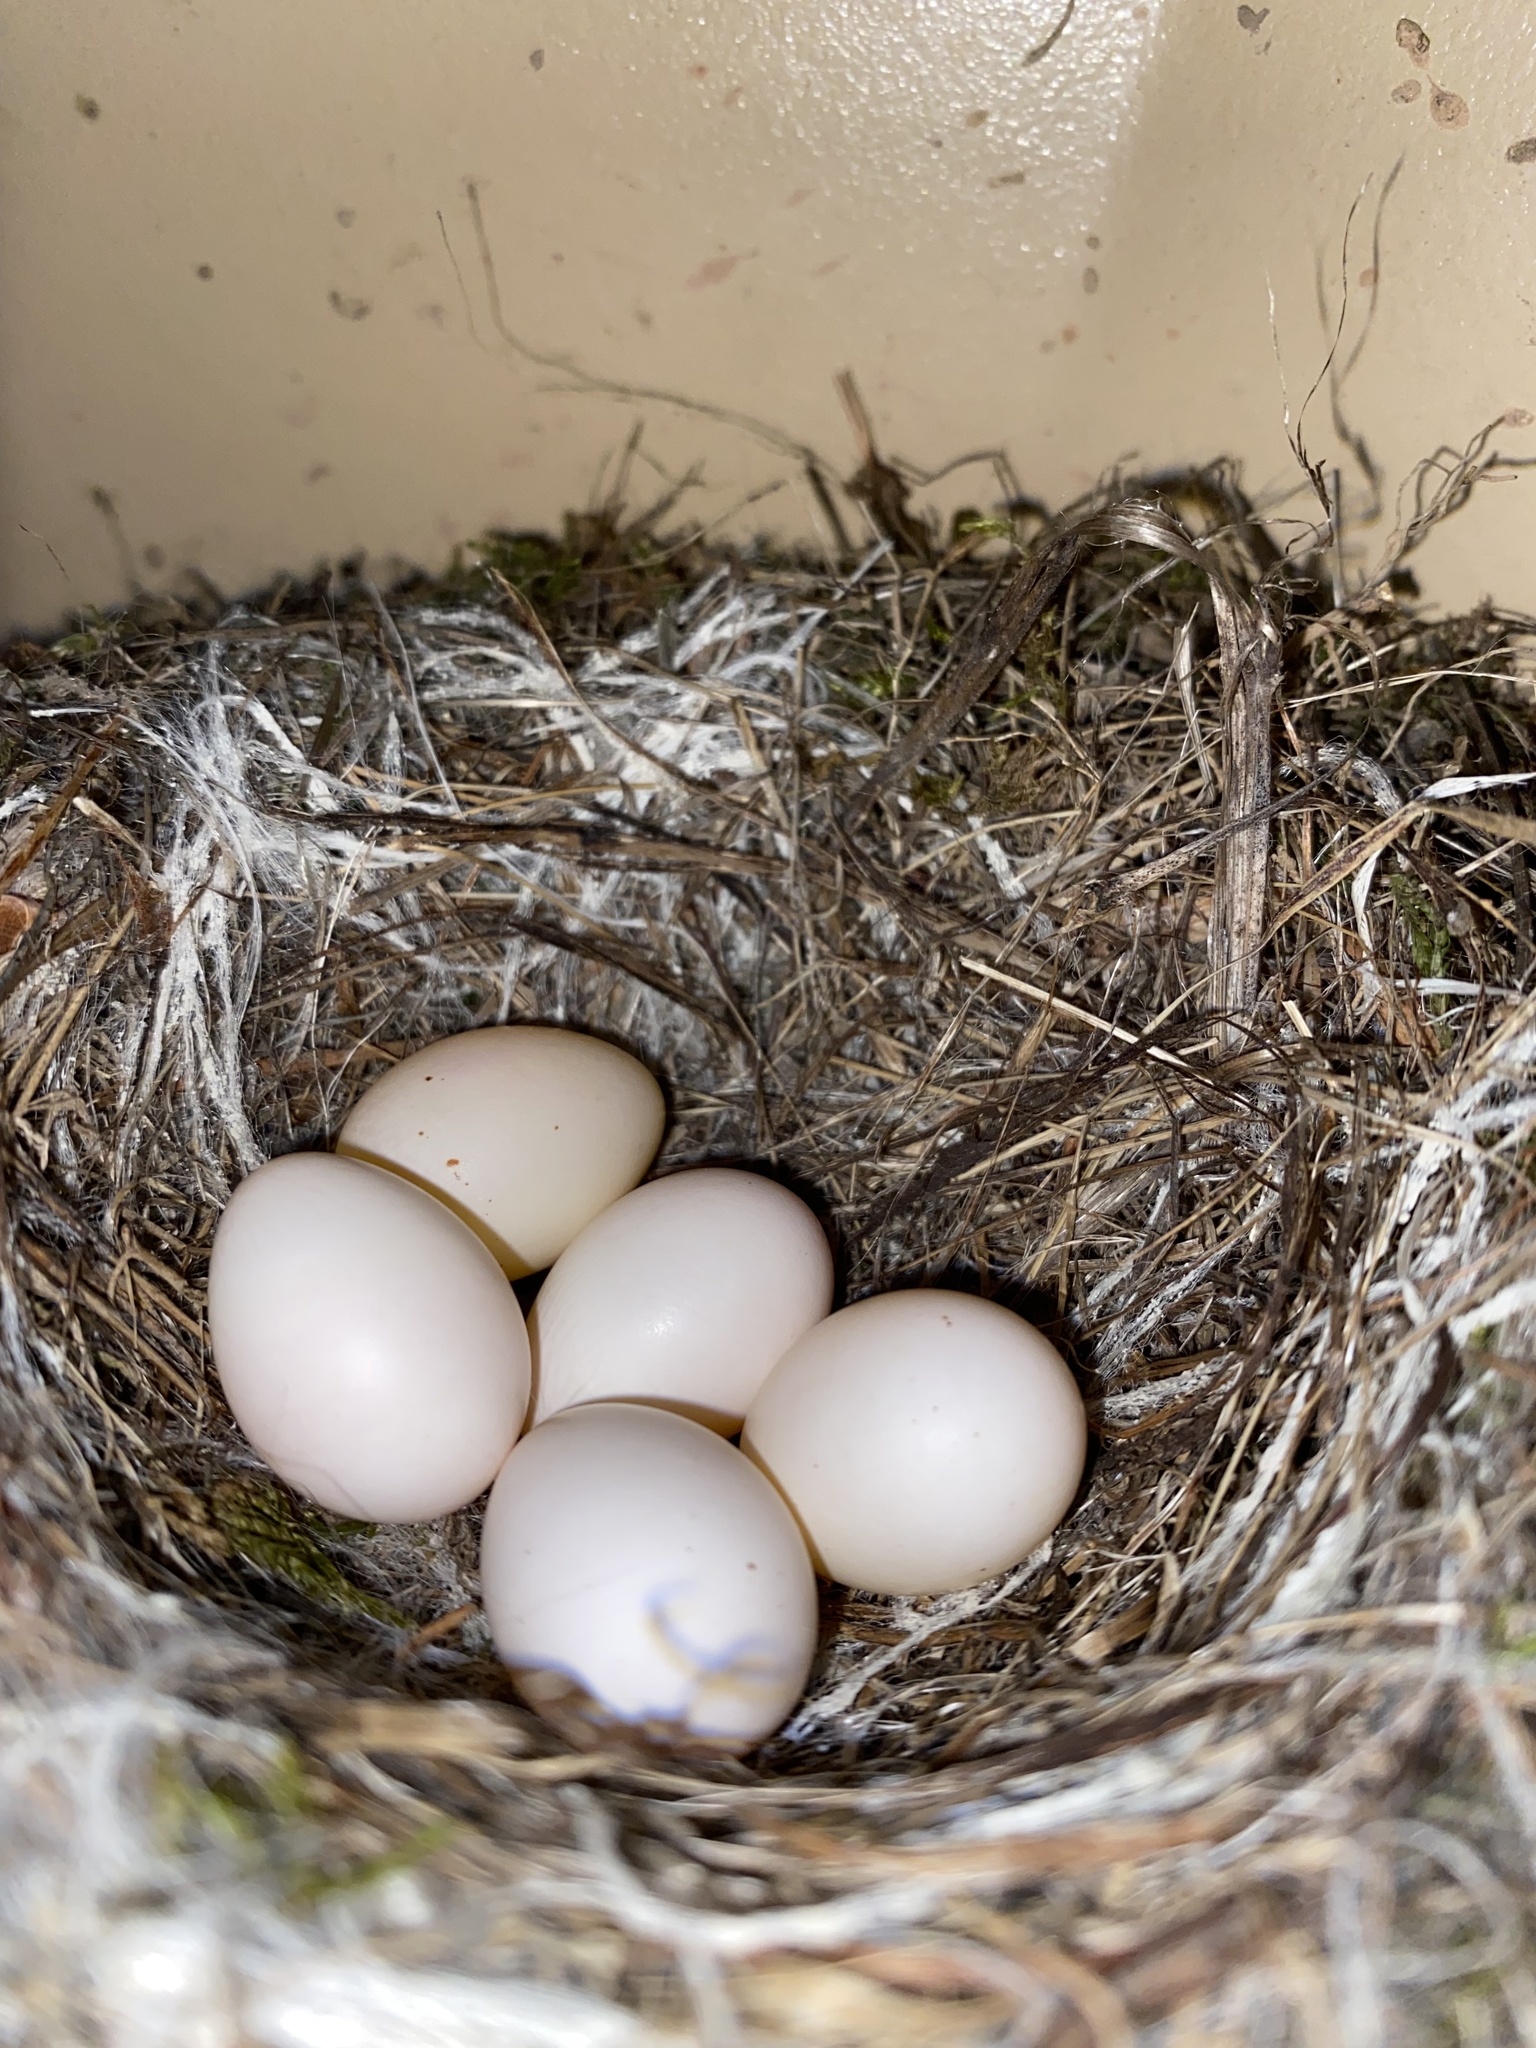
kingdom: Animalia
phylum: Chordata
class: Aves
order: Passeriformes
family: Tyrannidae
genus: Sayornis
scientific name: Sayornis phoebe
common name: Eastern phoebe
